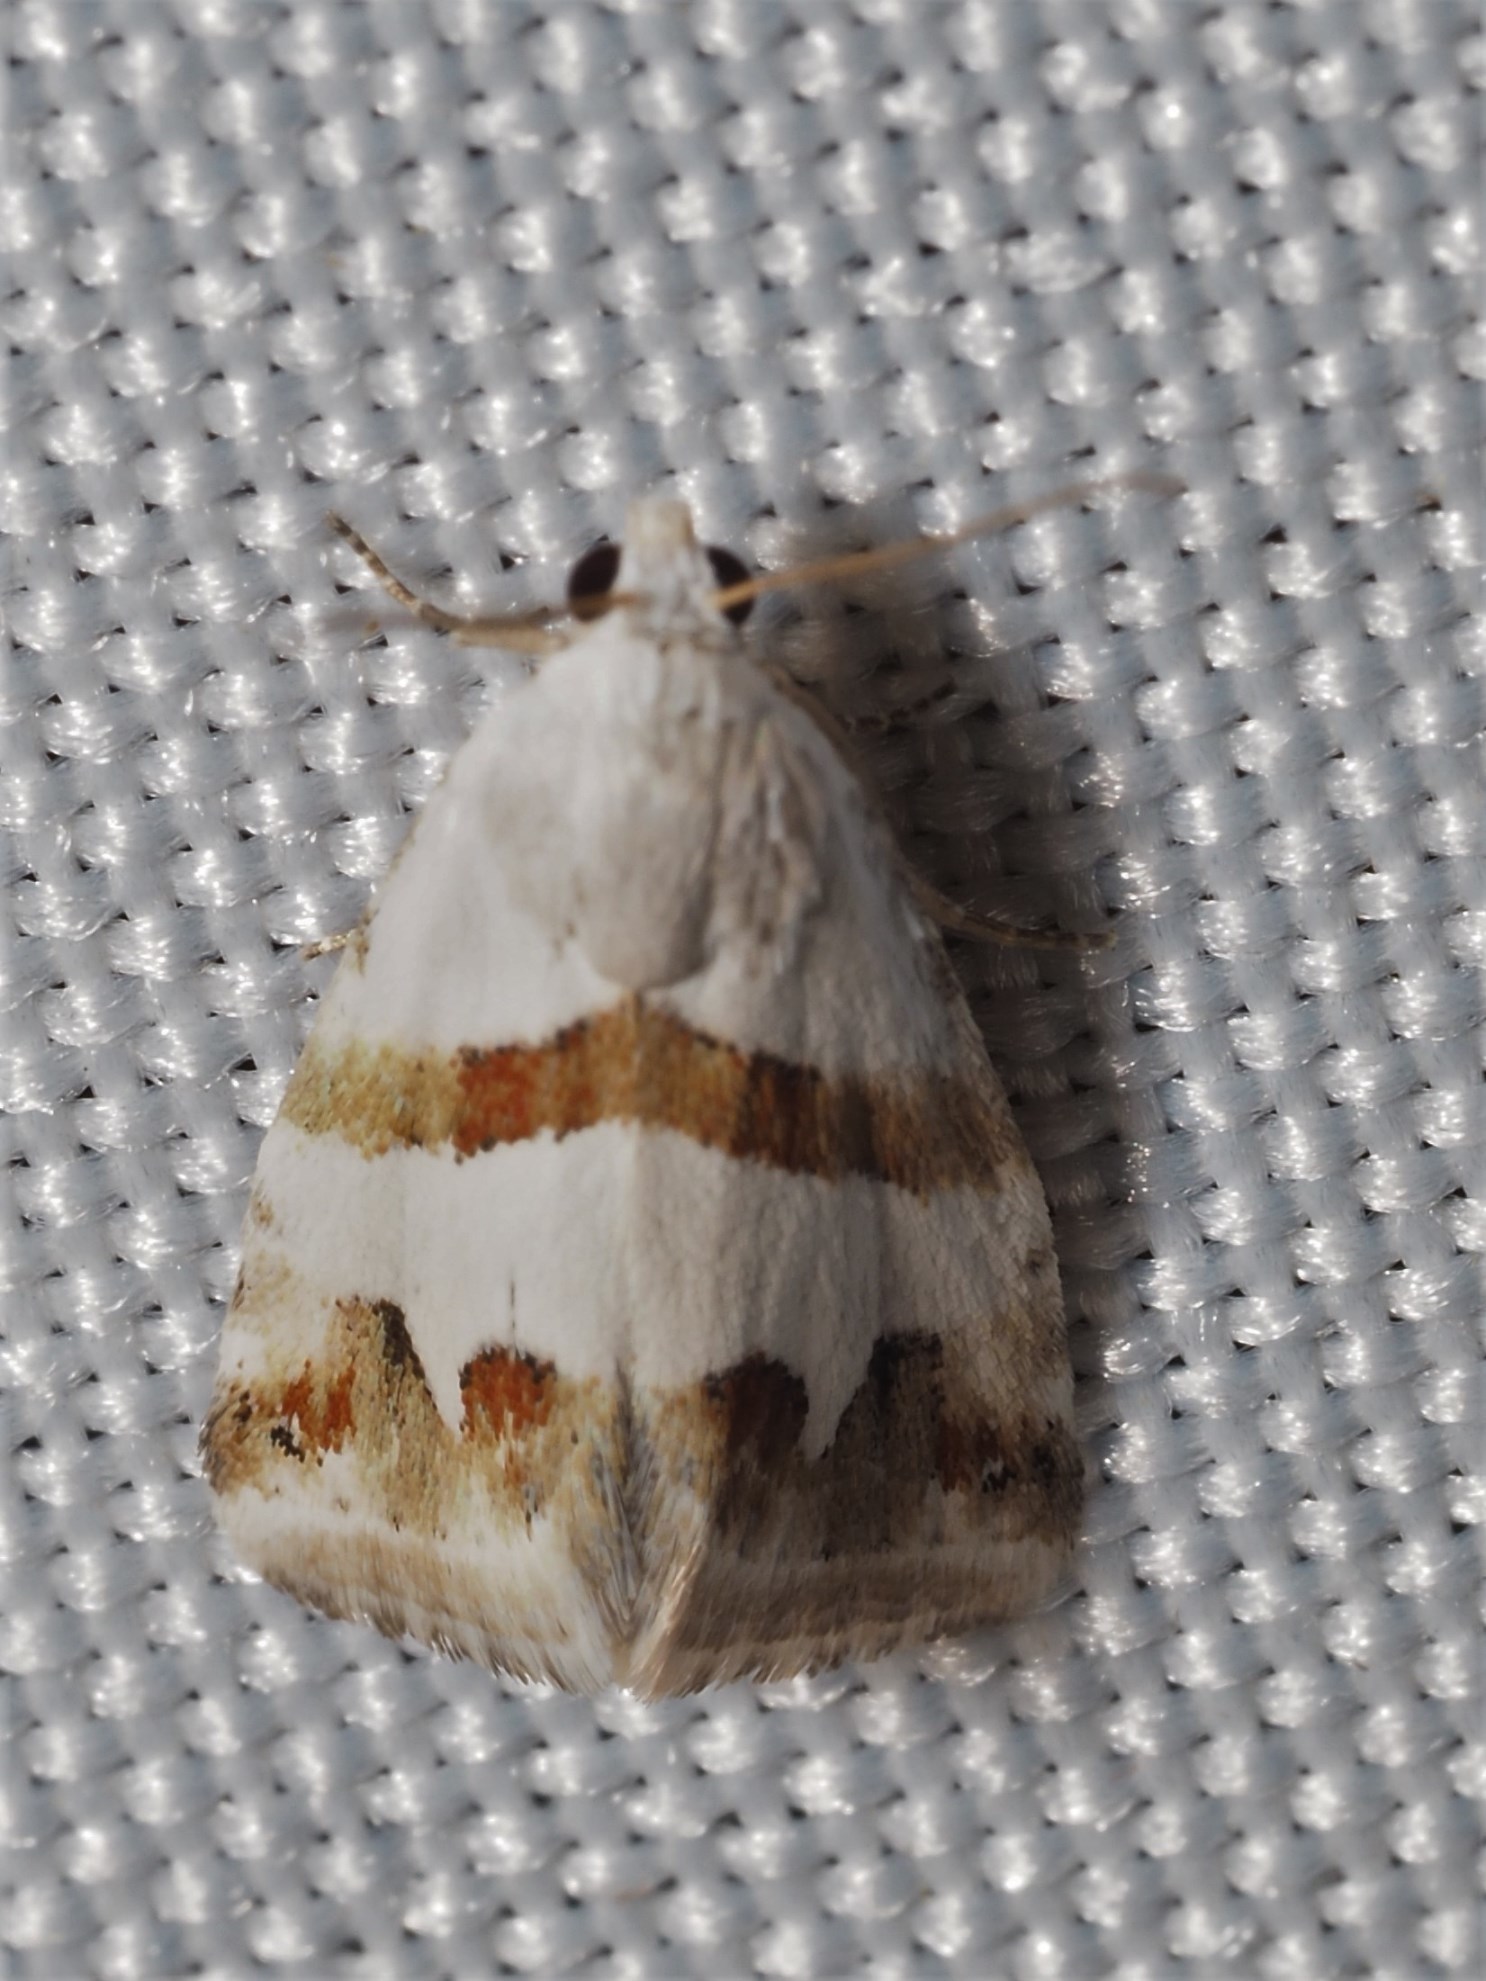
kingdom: Animalia
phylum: Arthropoda
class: Insecta
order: Lepidoptera
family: Noctuidae
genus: Eublemma
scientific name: Eublemma candidana
